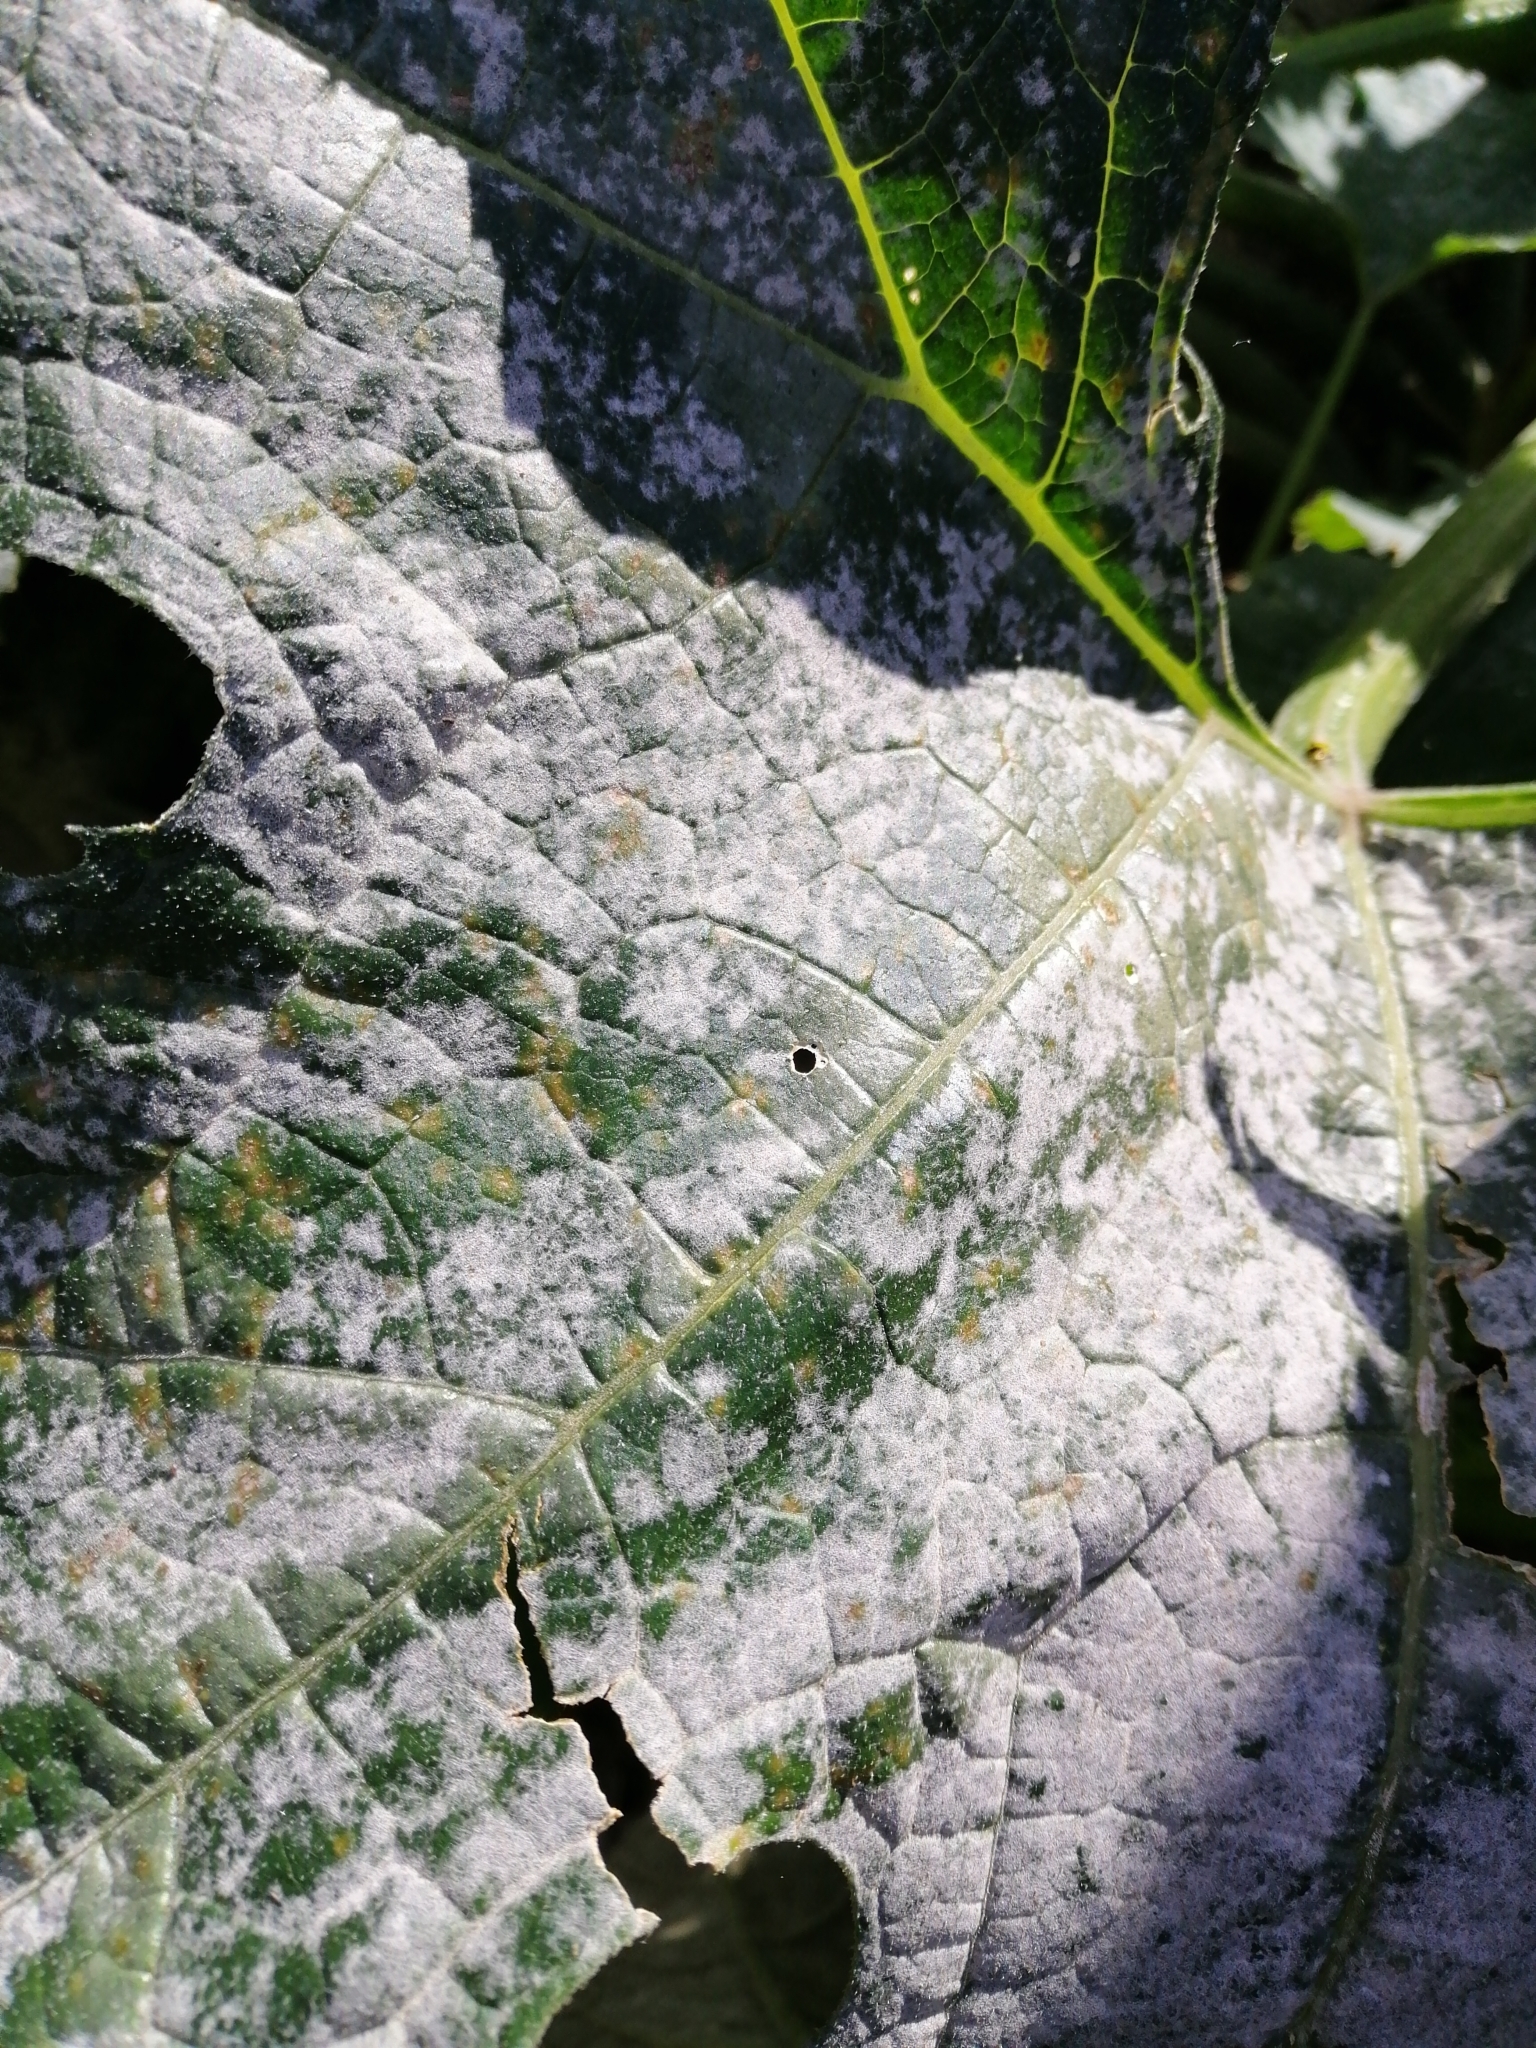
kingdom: Fungi
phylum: Ascomycota
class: Leotiomycetes
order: Helotiales
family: Erysiphaceae
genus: Golovinomyces
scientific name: Golovinomyces tabaci
